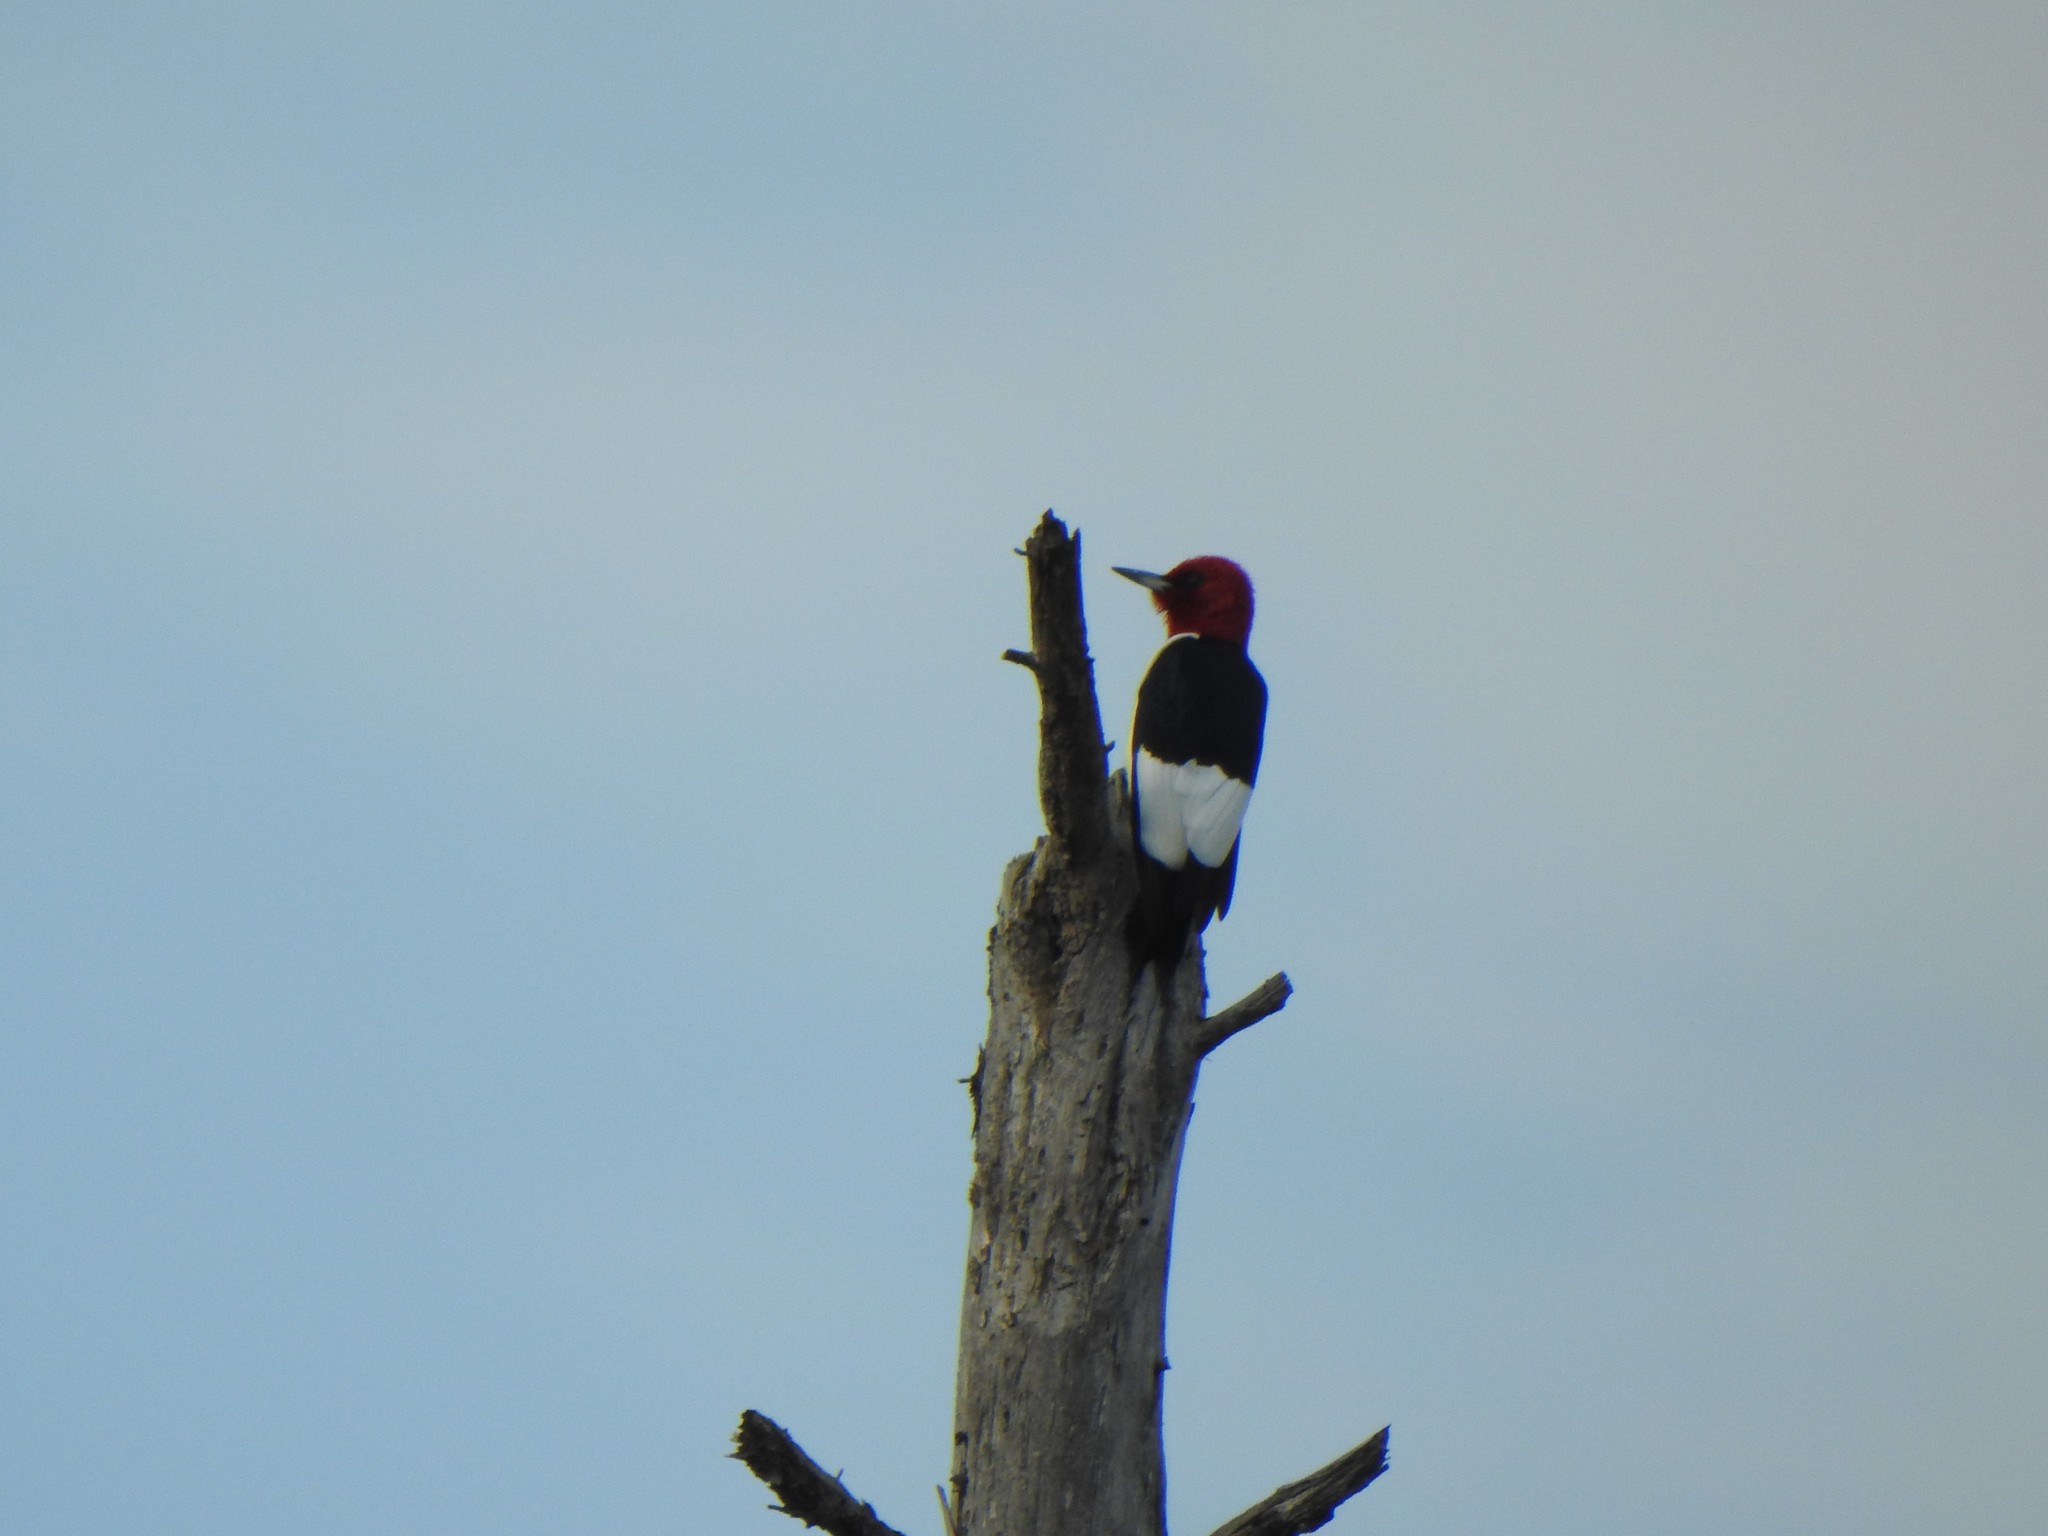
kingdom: Animalia
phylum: Chordata
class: Aves
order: Piciformes
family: Picidae
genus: Melanerpes
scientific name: Melanerpes erythrocephalus
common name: Red-headed woodpecker
